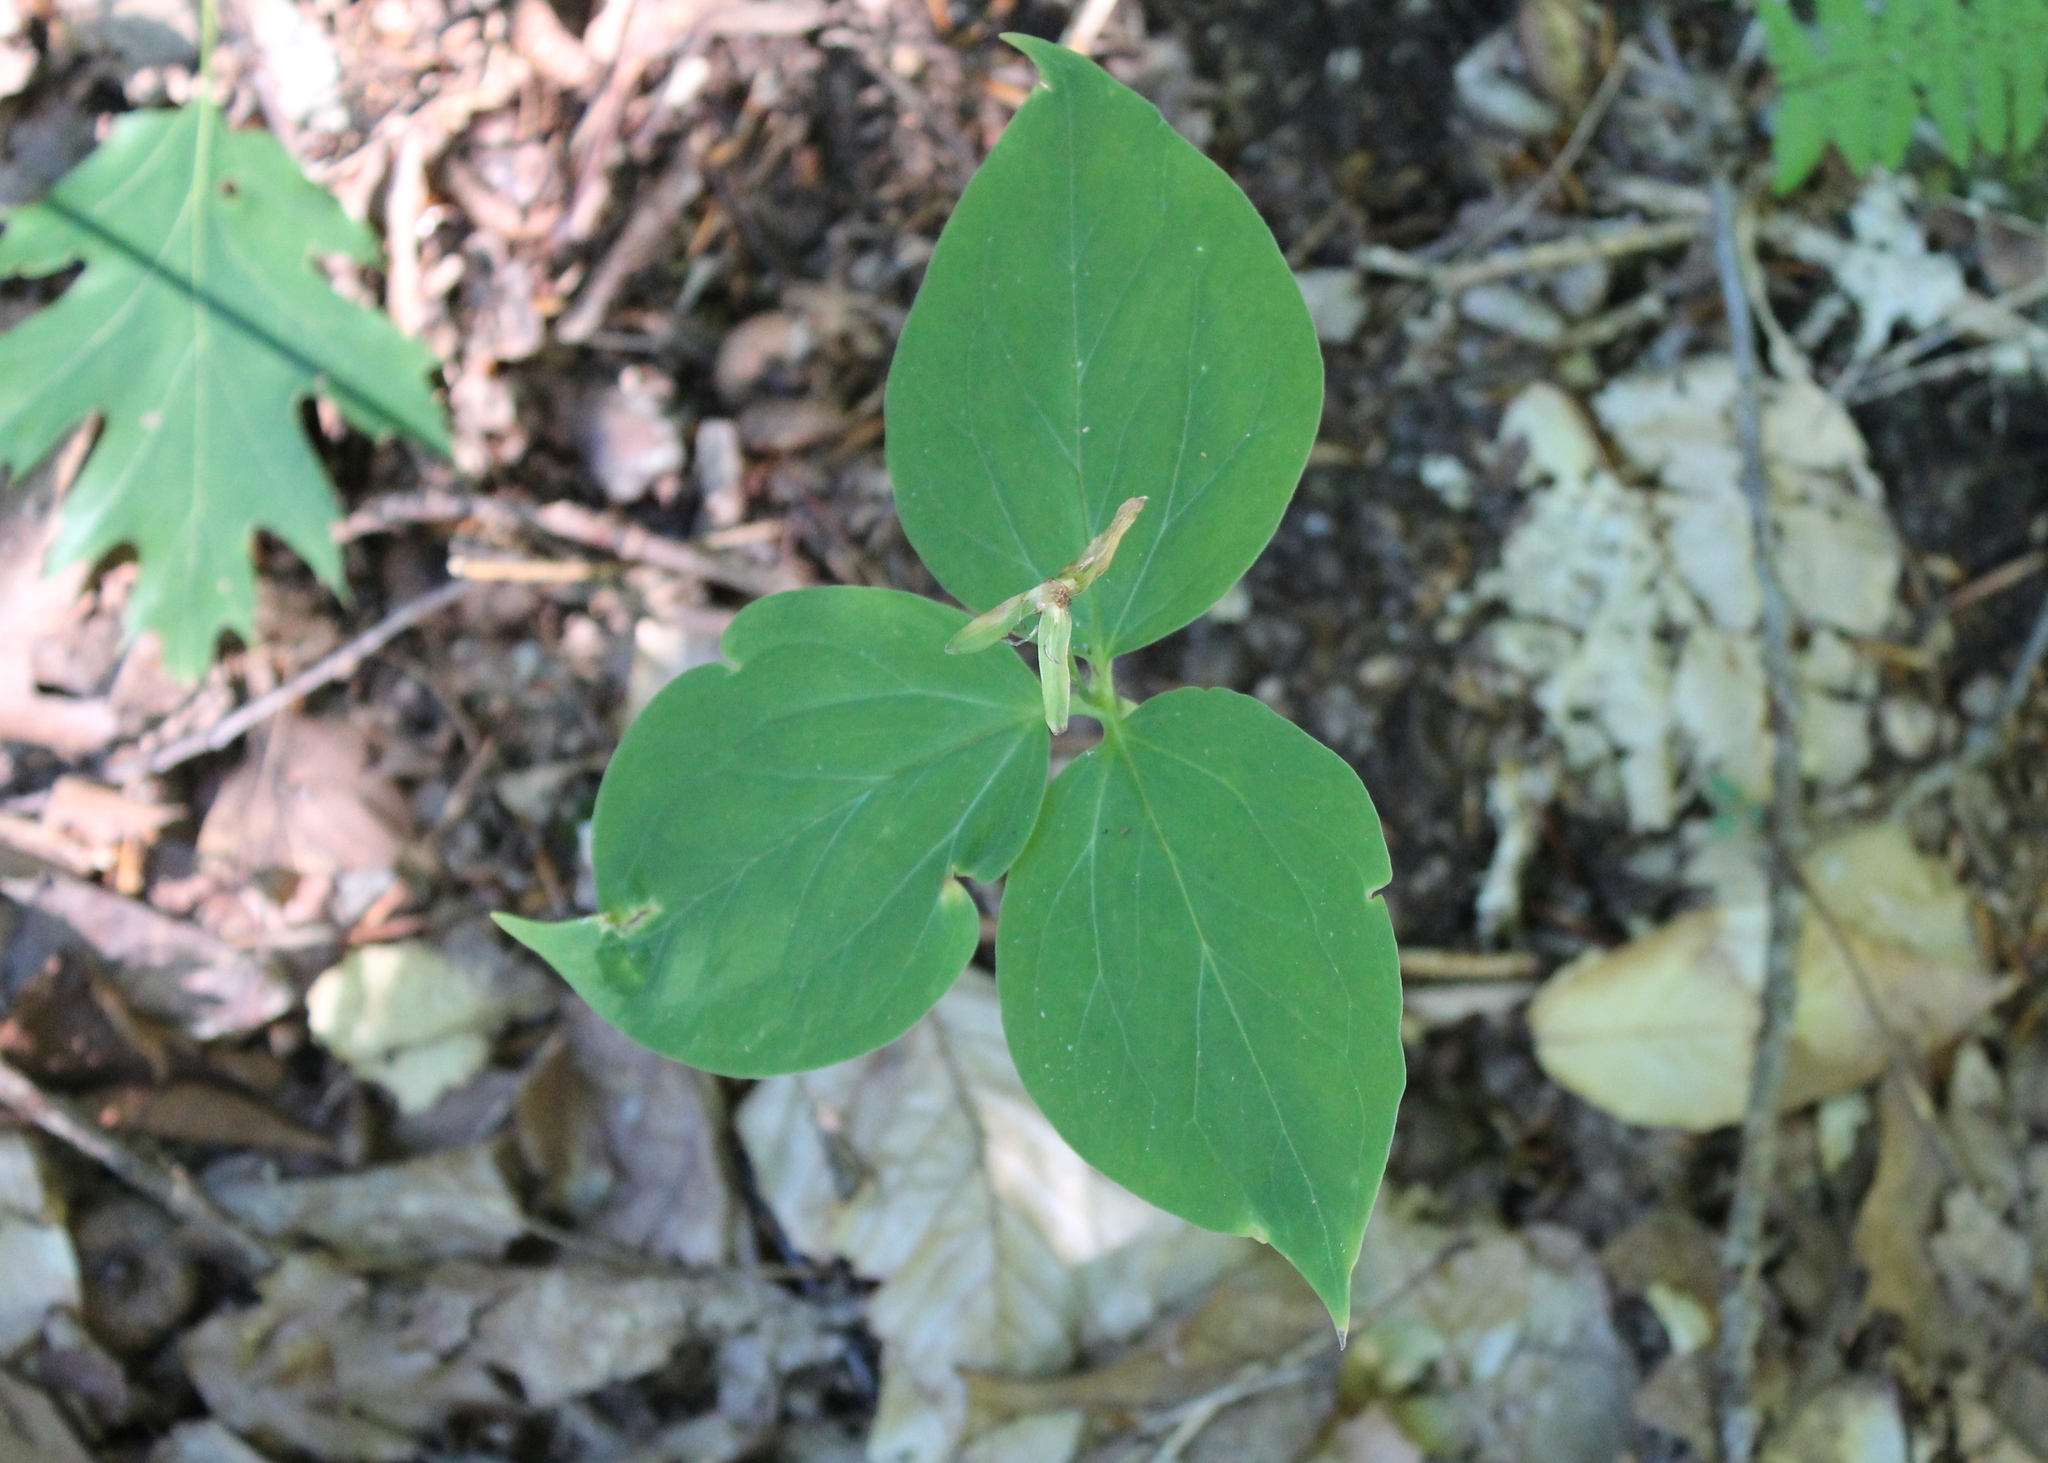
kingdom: Plantae
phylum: Tracheophyta
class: Liliopsida
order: Liliales
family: Melanthiaceae
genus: Trillium
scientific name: Trillium undulatum
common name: Paint trillium
